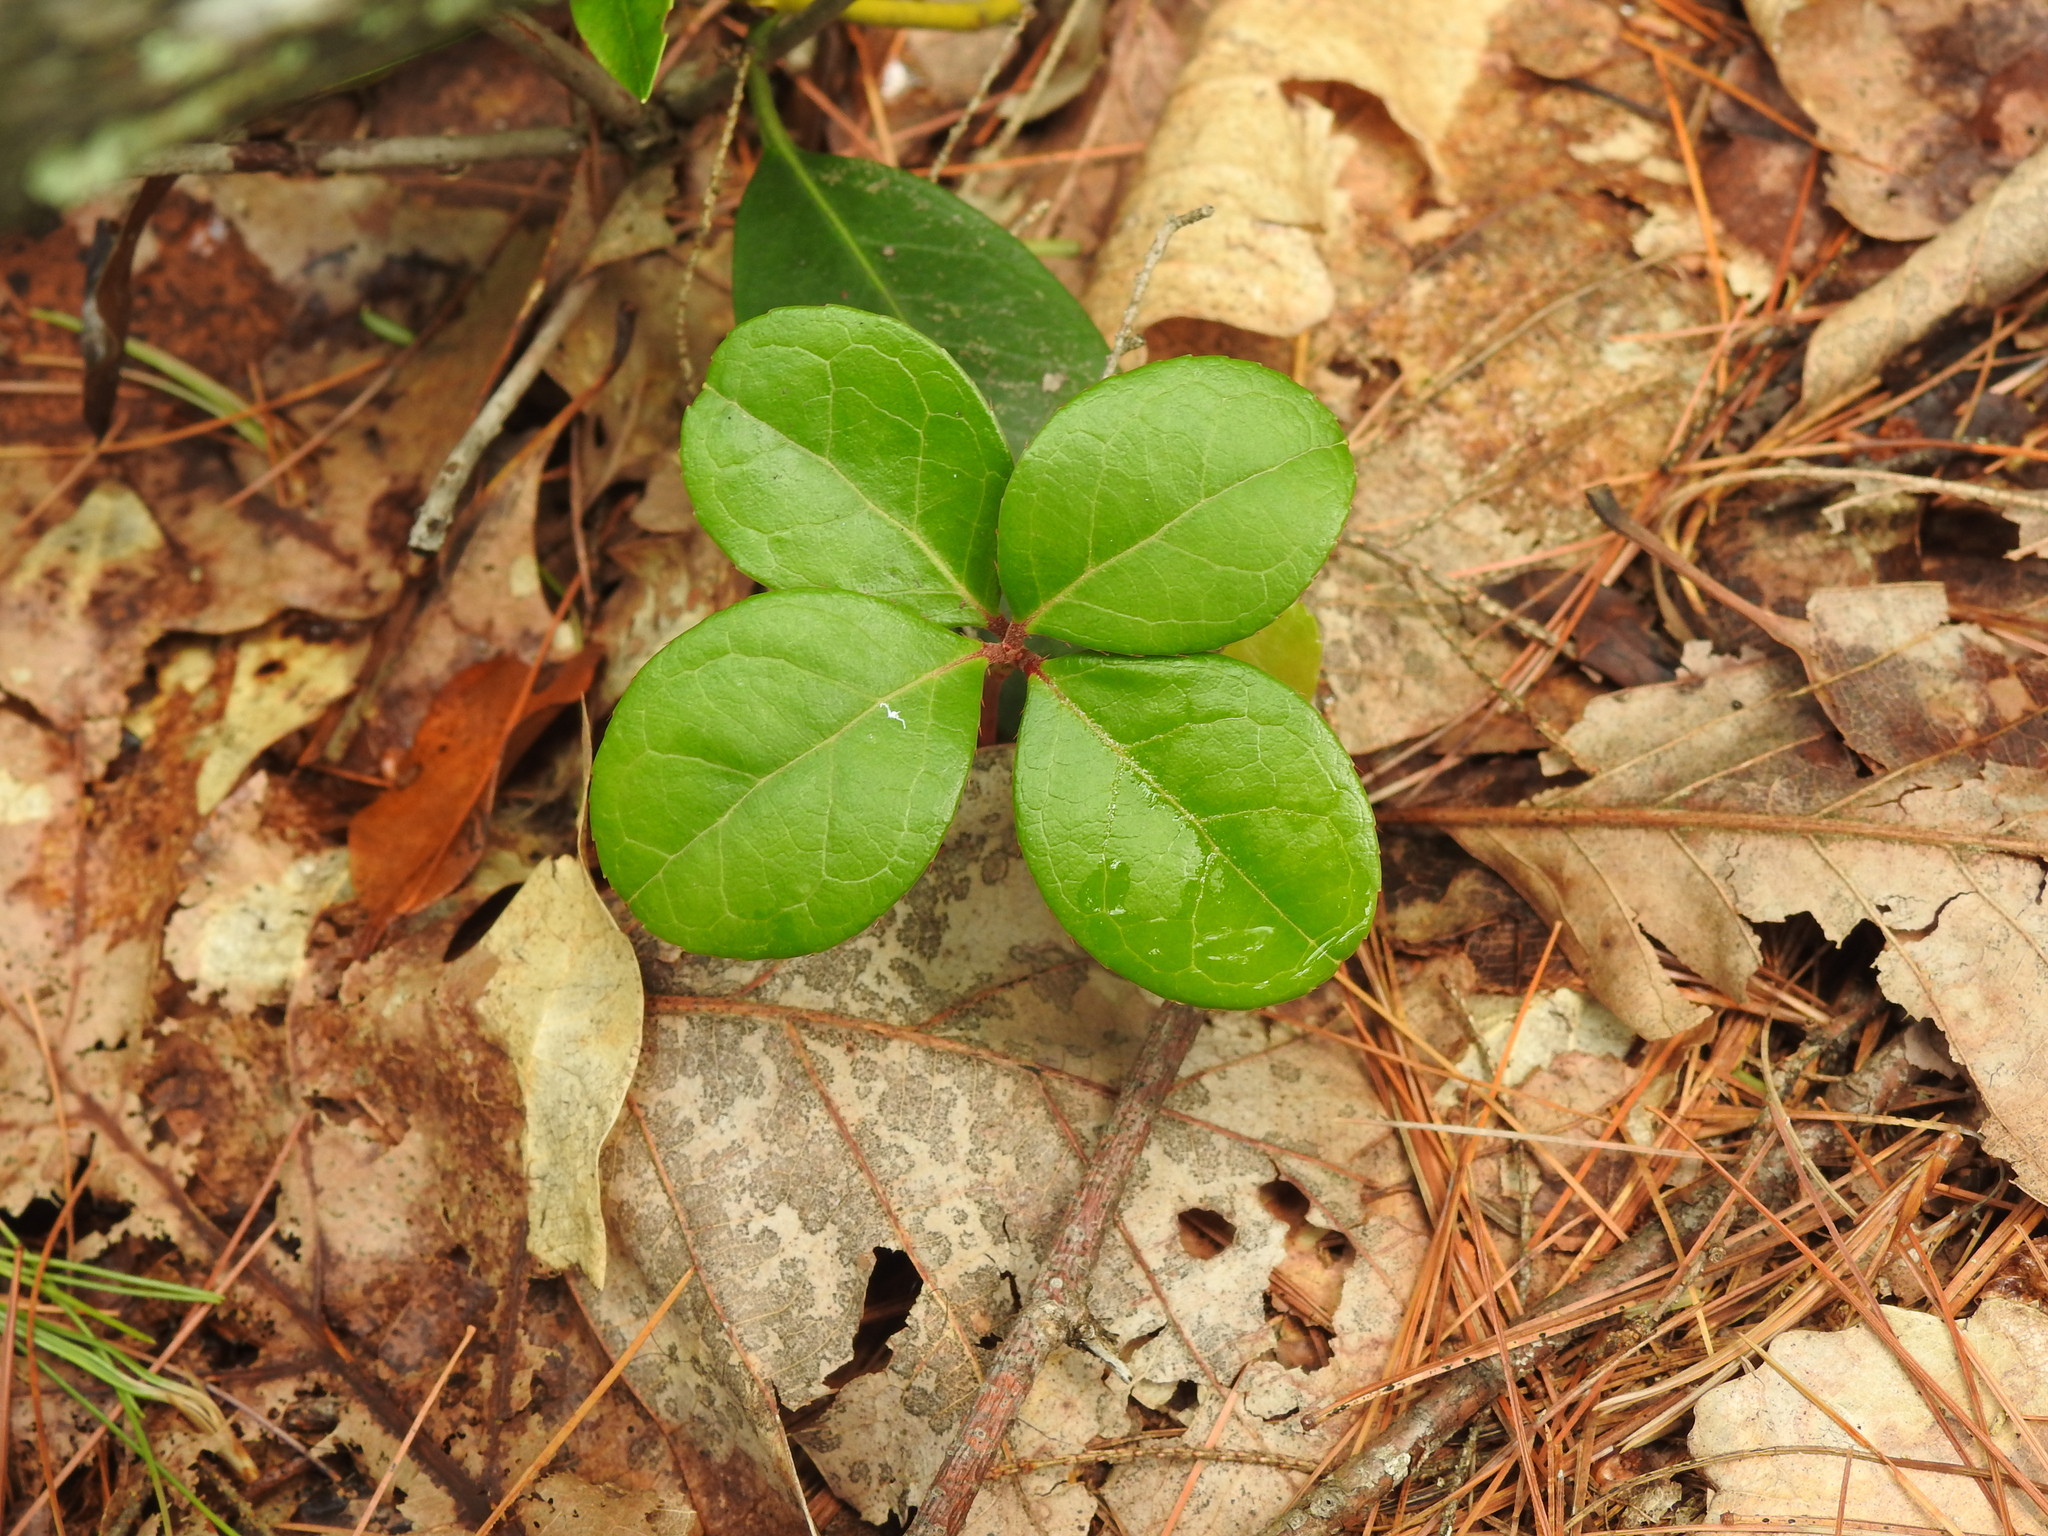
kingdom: Plantae
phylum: Tracheophyta
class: Magnoliopsida
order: Ericales
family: Ericaceae
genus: Gaultheria
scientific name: Gaultheria procumbens
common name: Checkerberry
